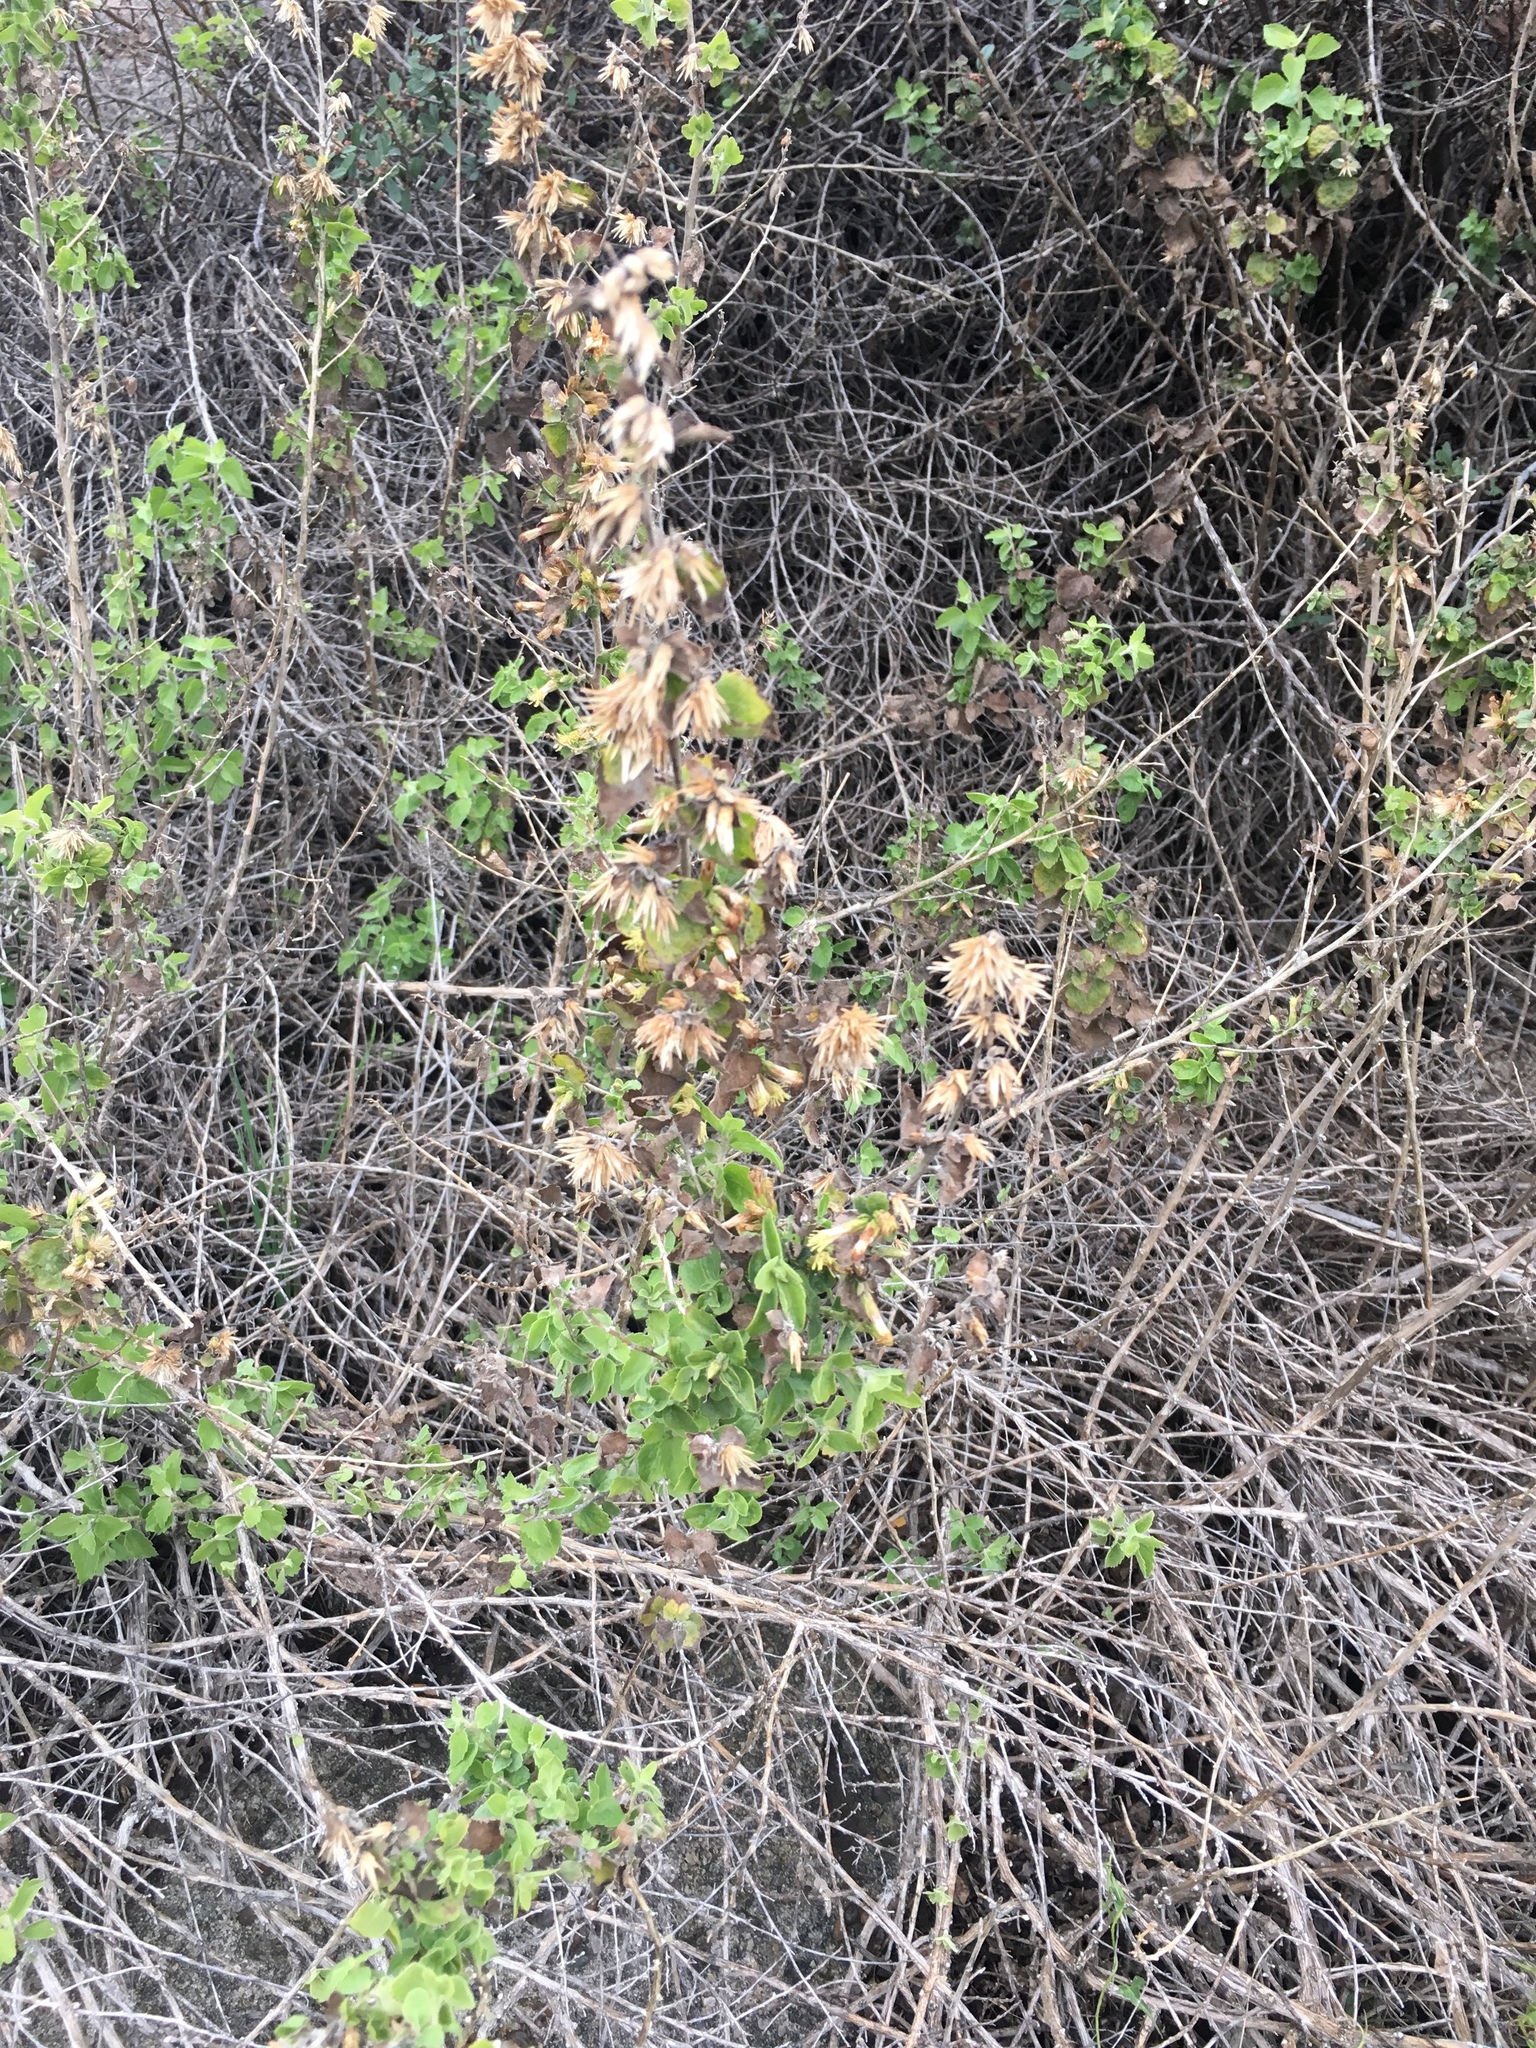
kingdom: Plantae
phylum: Tracheophyta
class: Magnoliopsida
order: Asterales
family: Asteraceae
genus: Brickellia
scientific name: Brickellia californica
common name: California brickellbush
